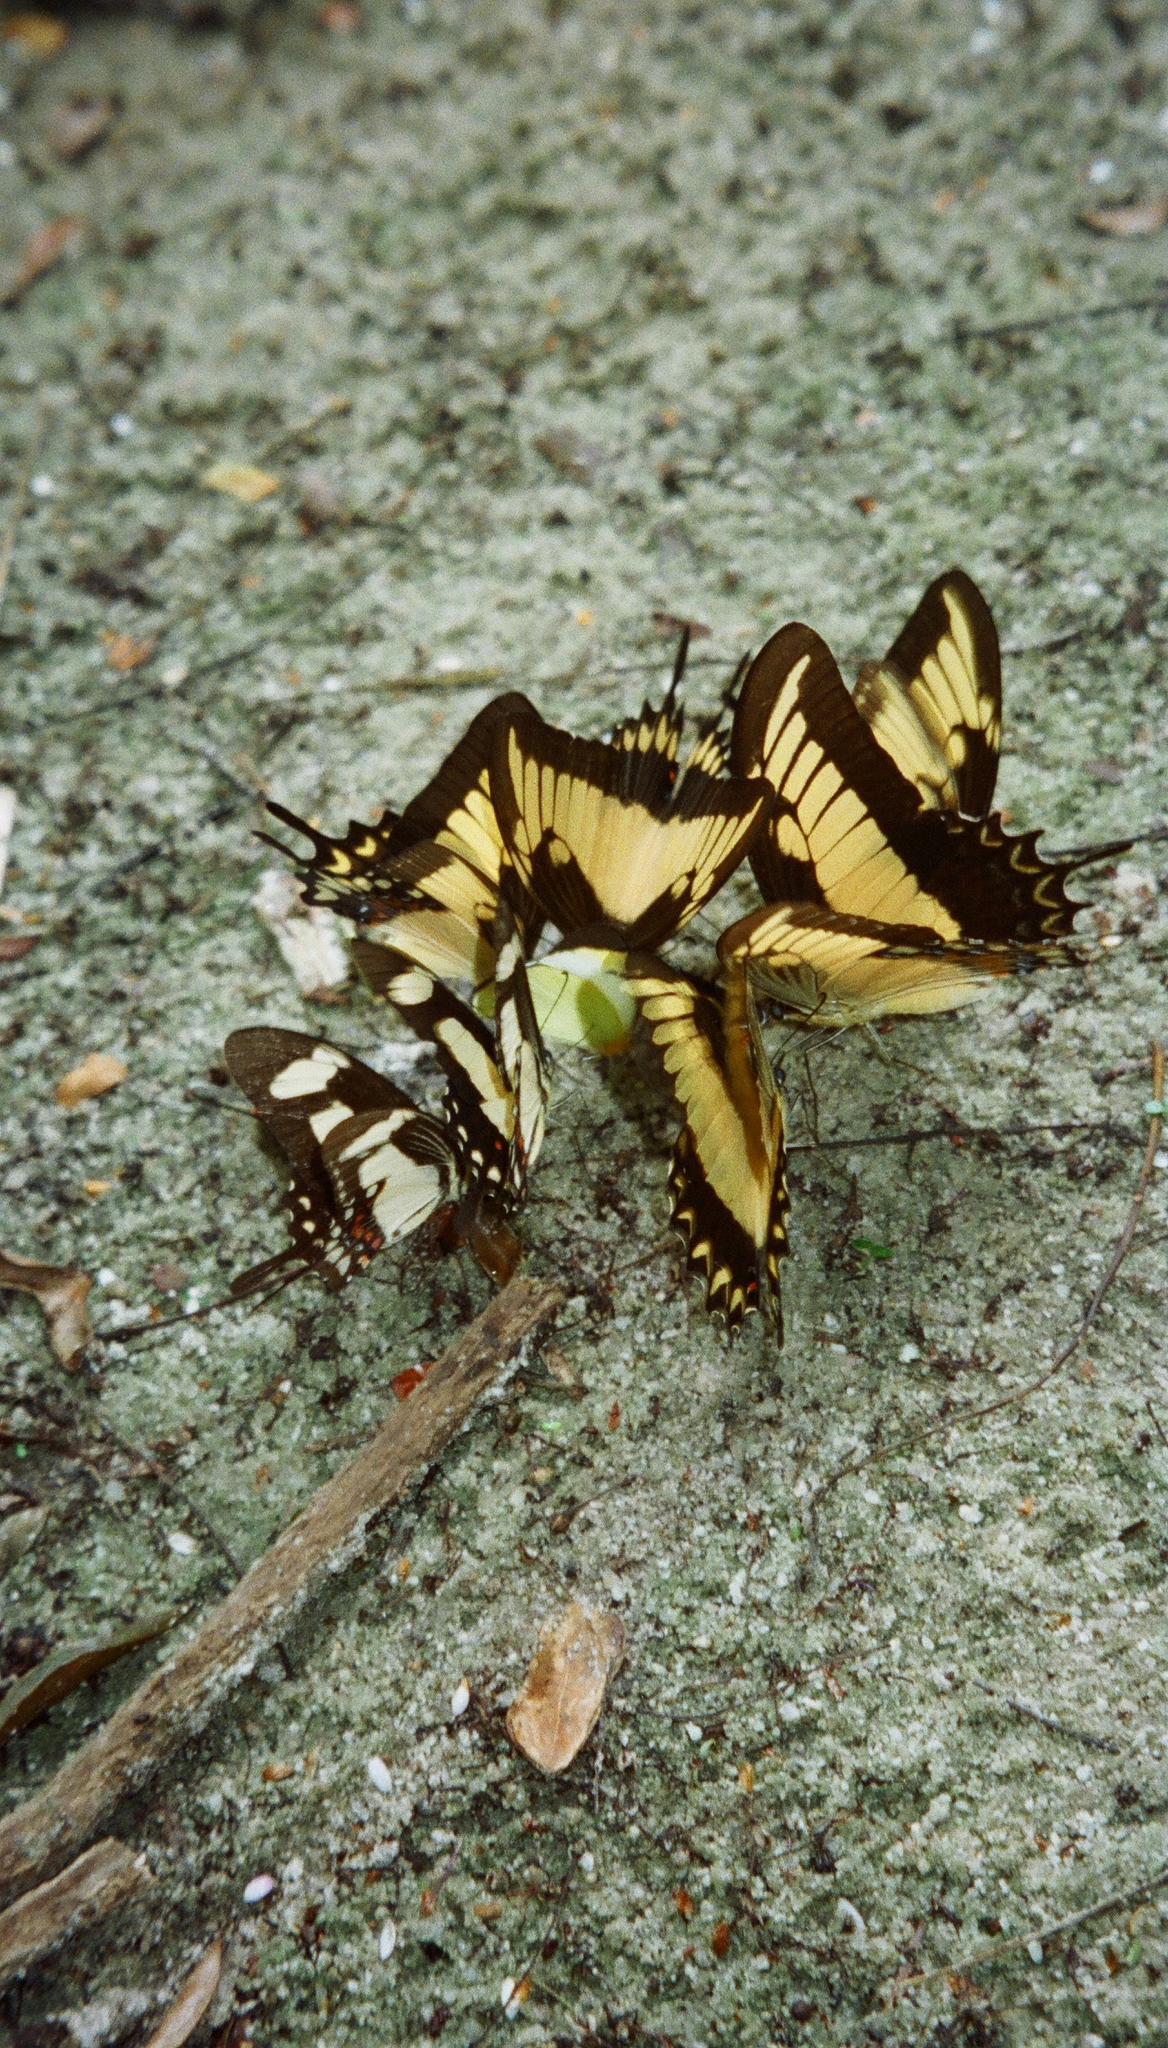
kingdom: Animalia
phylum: Arthropoda
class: Insecta
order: Lepidoptera
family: Papilionidae
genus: Papilio
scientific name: Papilio torquatus
